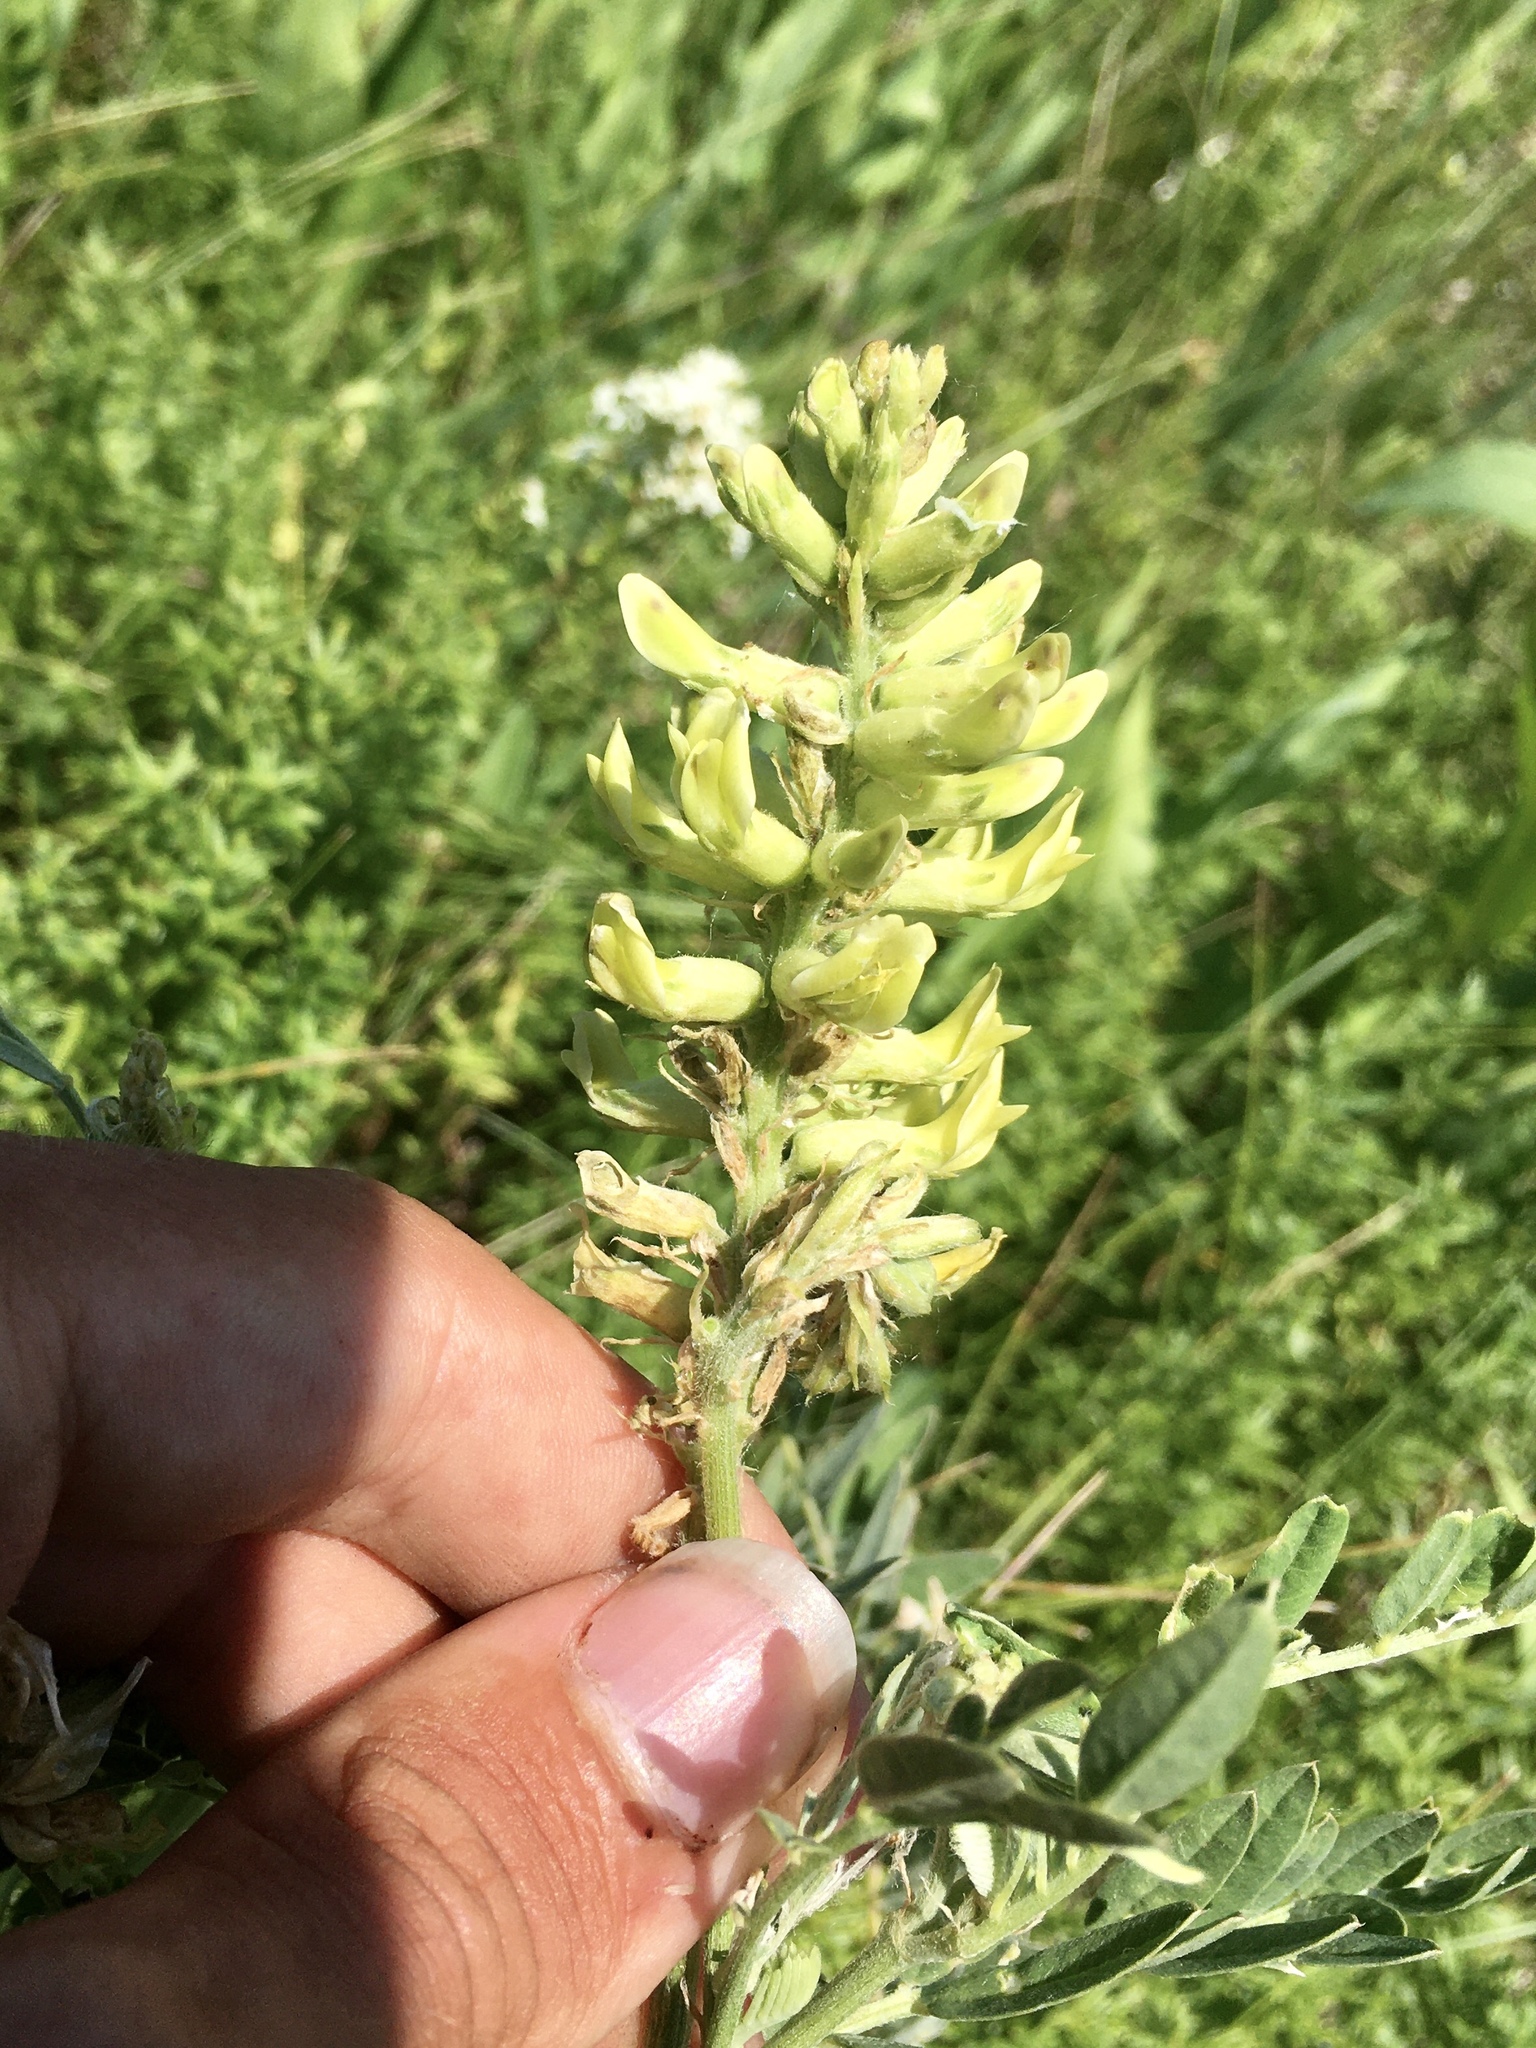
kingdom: Plantae
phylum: Tracheophyta
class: Magnoliopsida
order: Fabales
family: Fabaceae
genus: Astragalus
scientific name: Astragalus canadensis
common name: Canada milk-vetch
